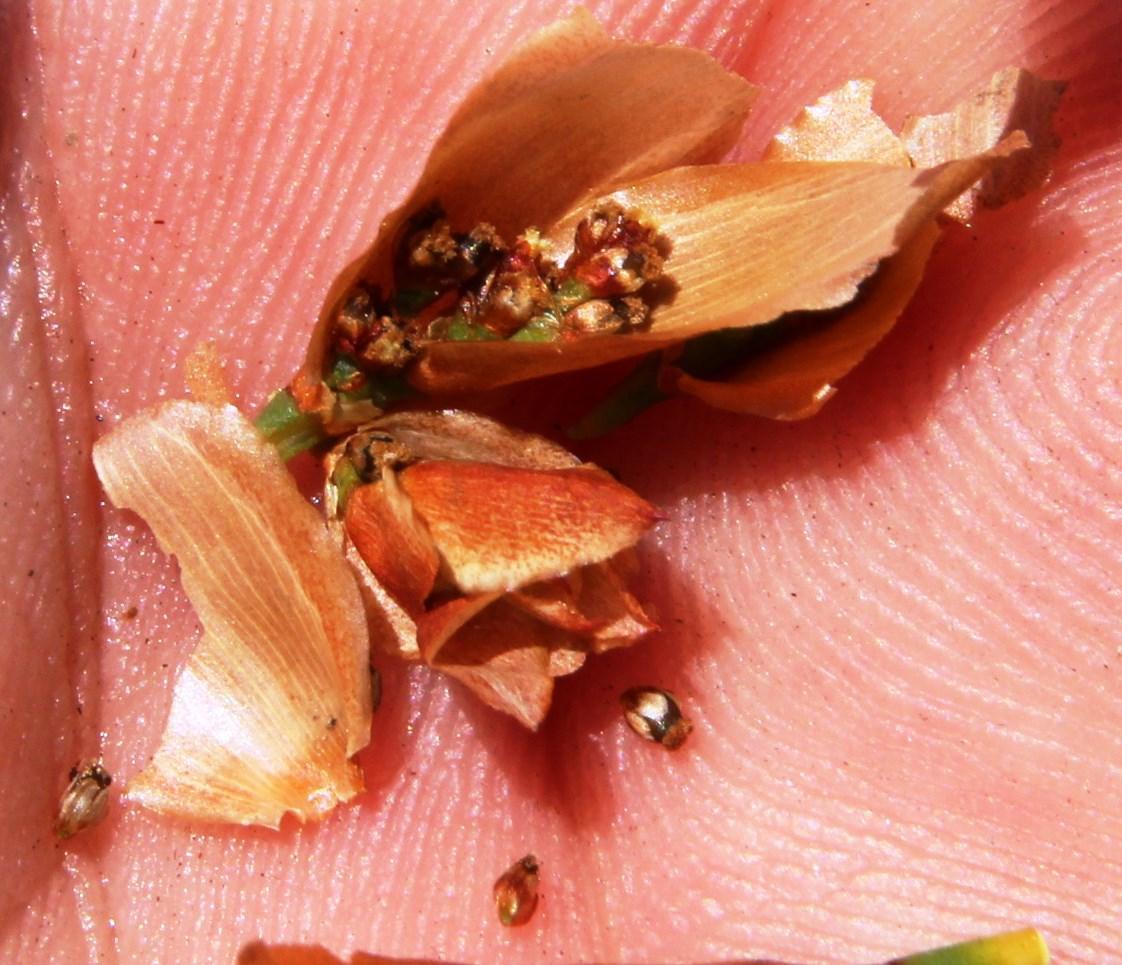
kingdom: Plantae
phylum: Tracheophyta
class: Liliopsida
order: Poales
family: Restionaceae
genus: Elegia
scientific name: Elegia spathacea
